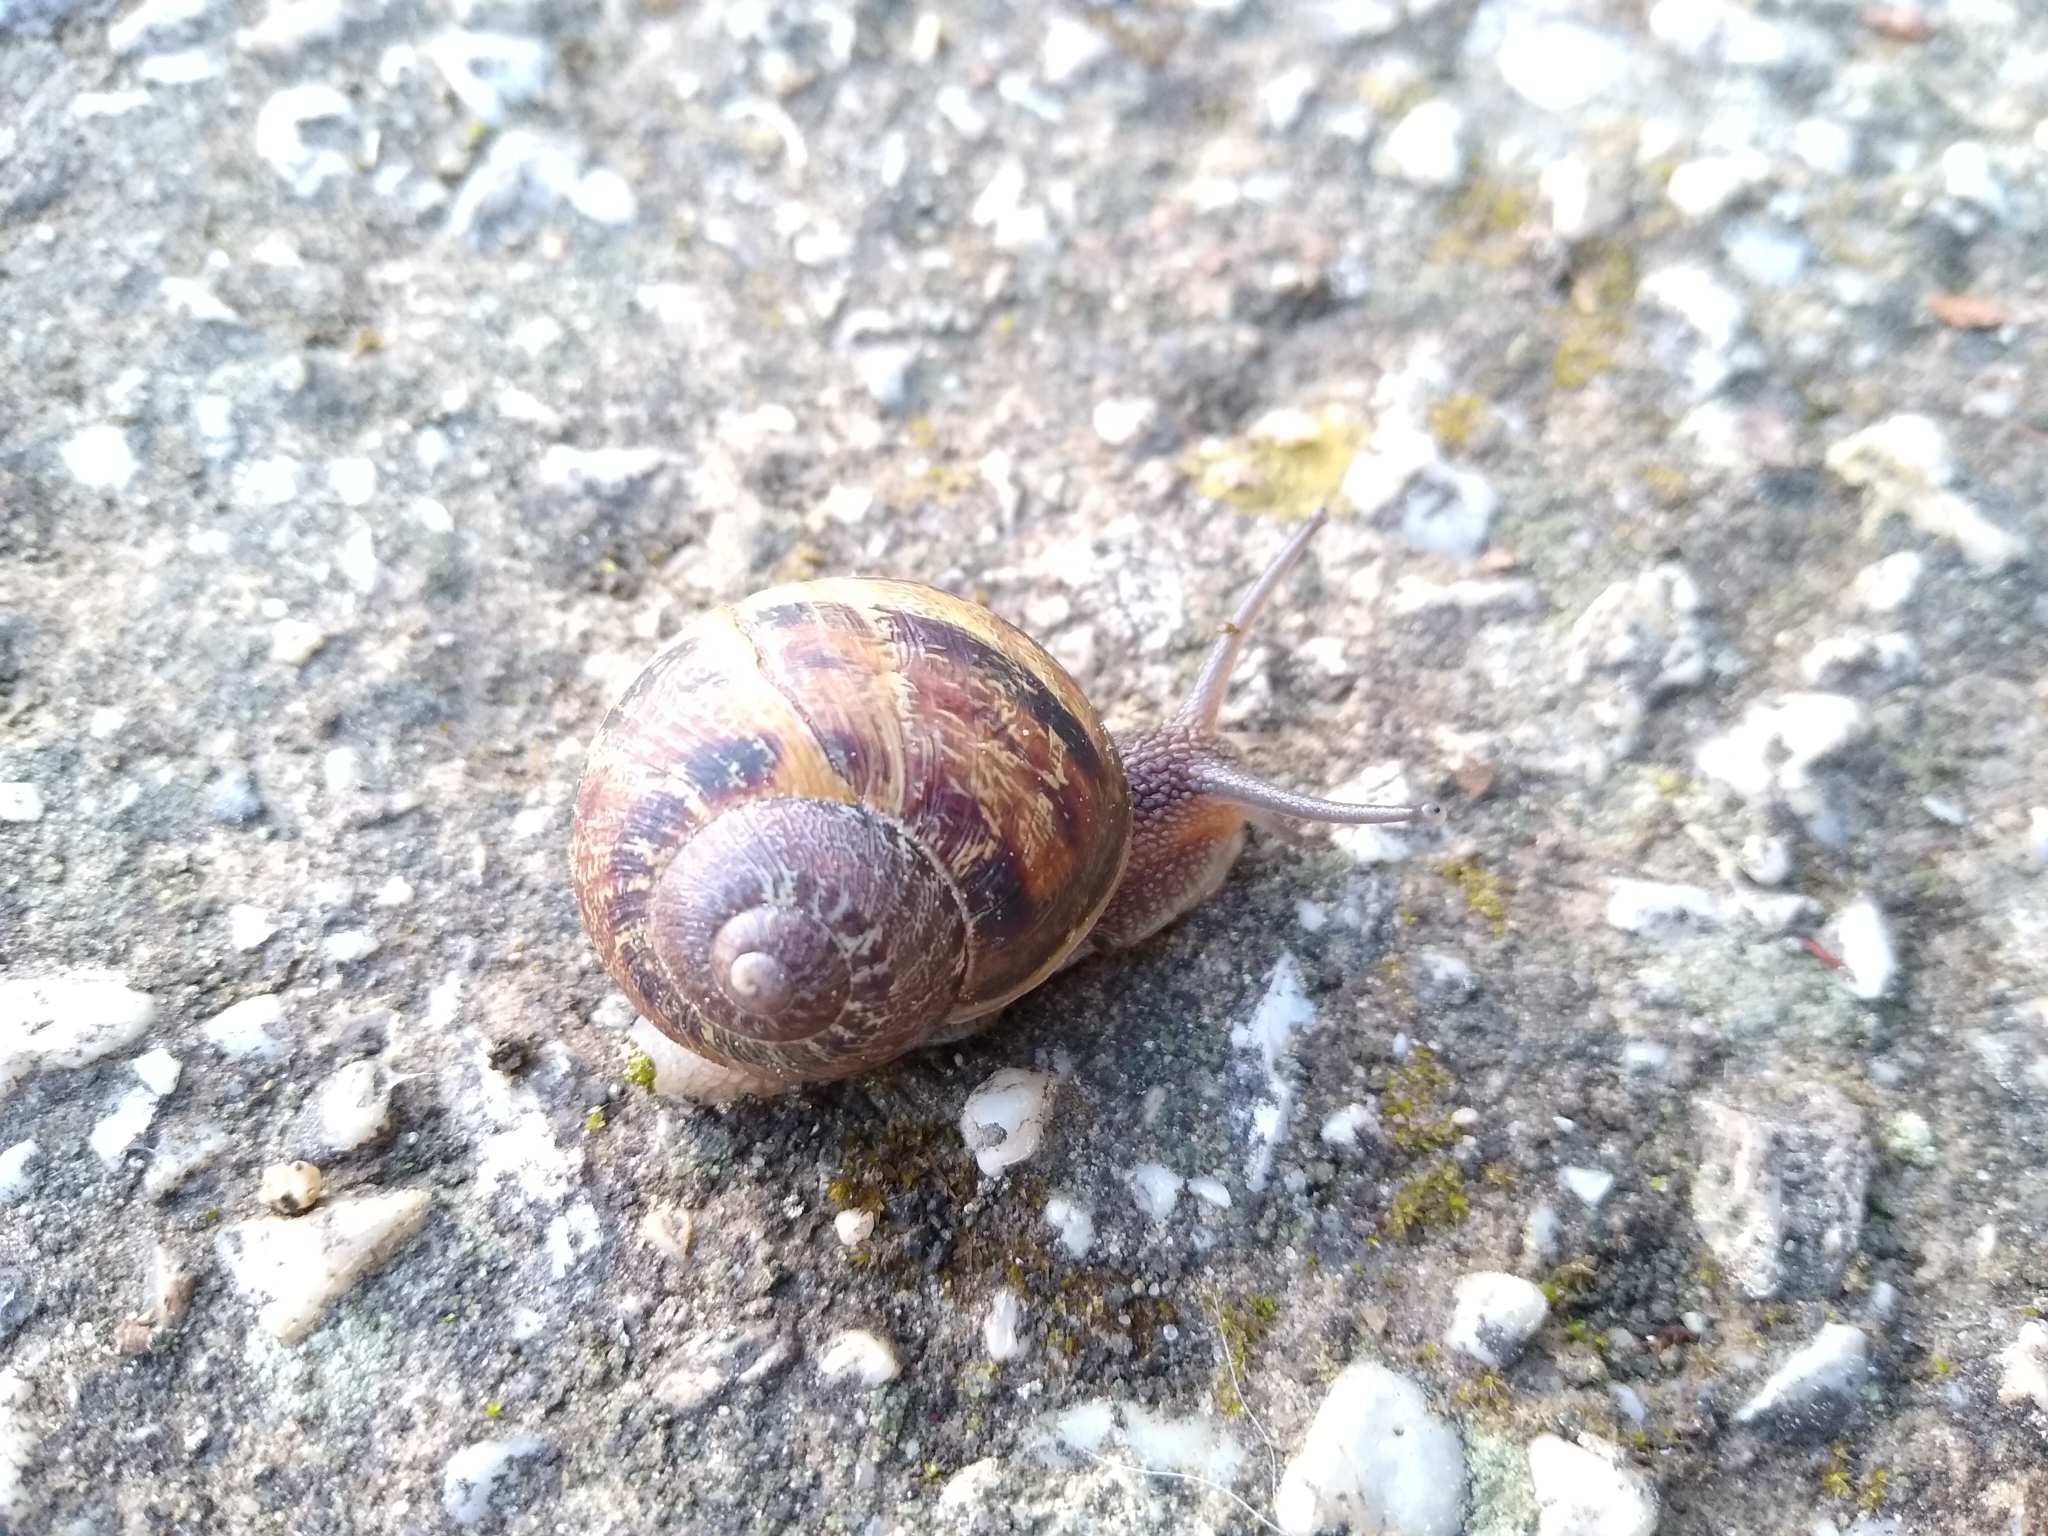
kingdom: Animalia
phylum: Mollusca
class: Gastropoda
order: Stylommatophora
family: Helicidae
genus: Cornu
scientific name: Cornu aspersum
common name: Brown garden snail
